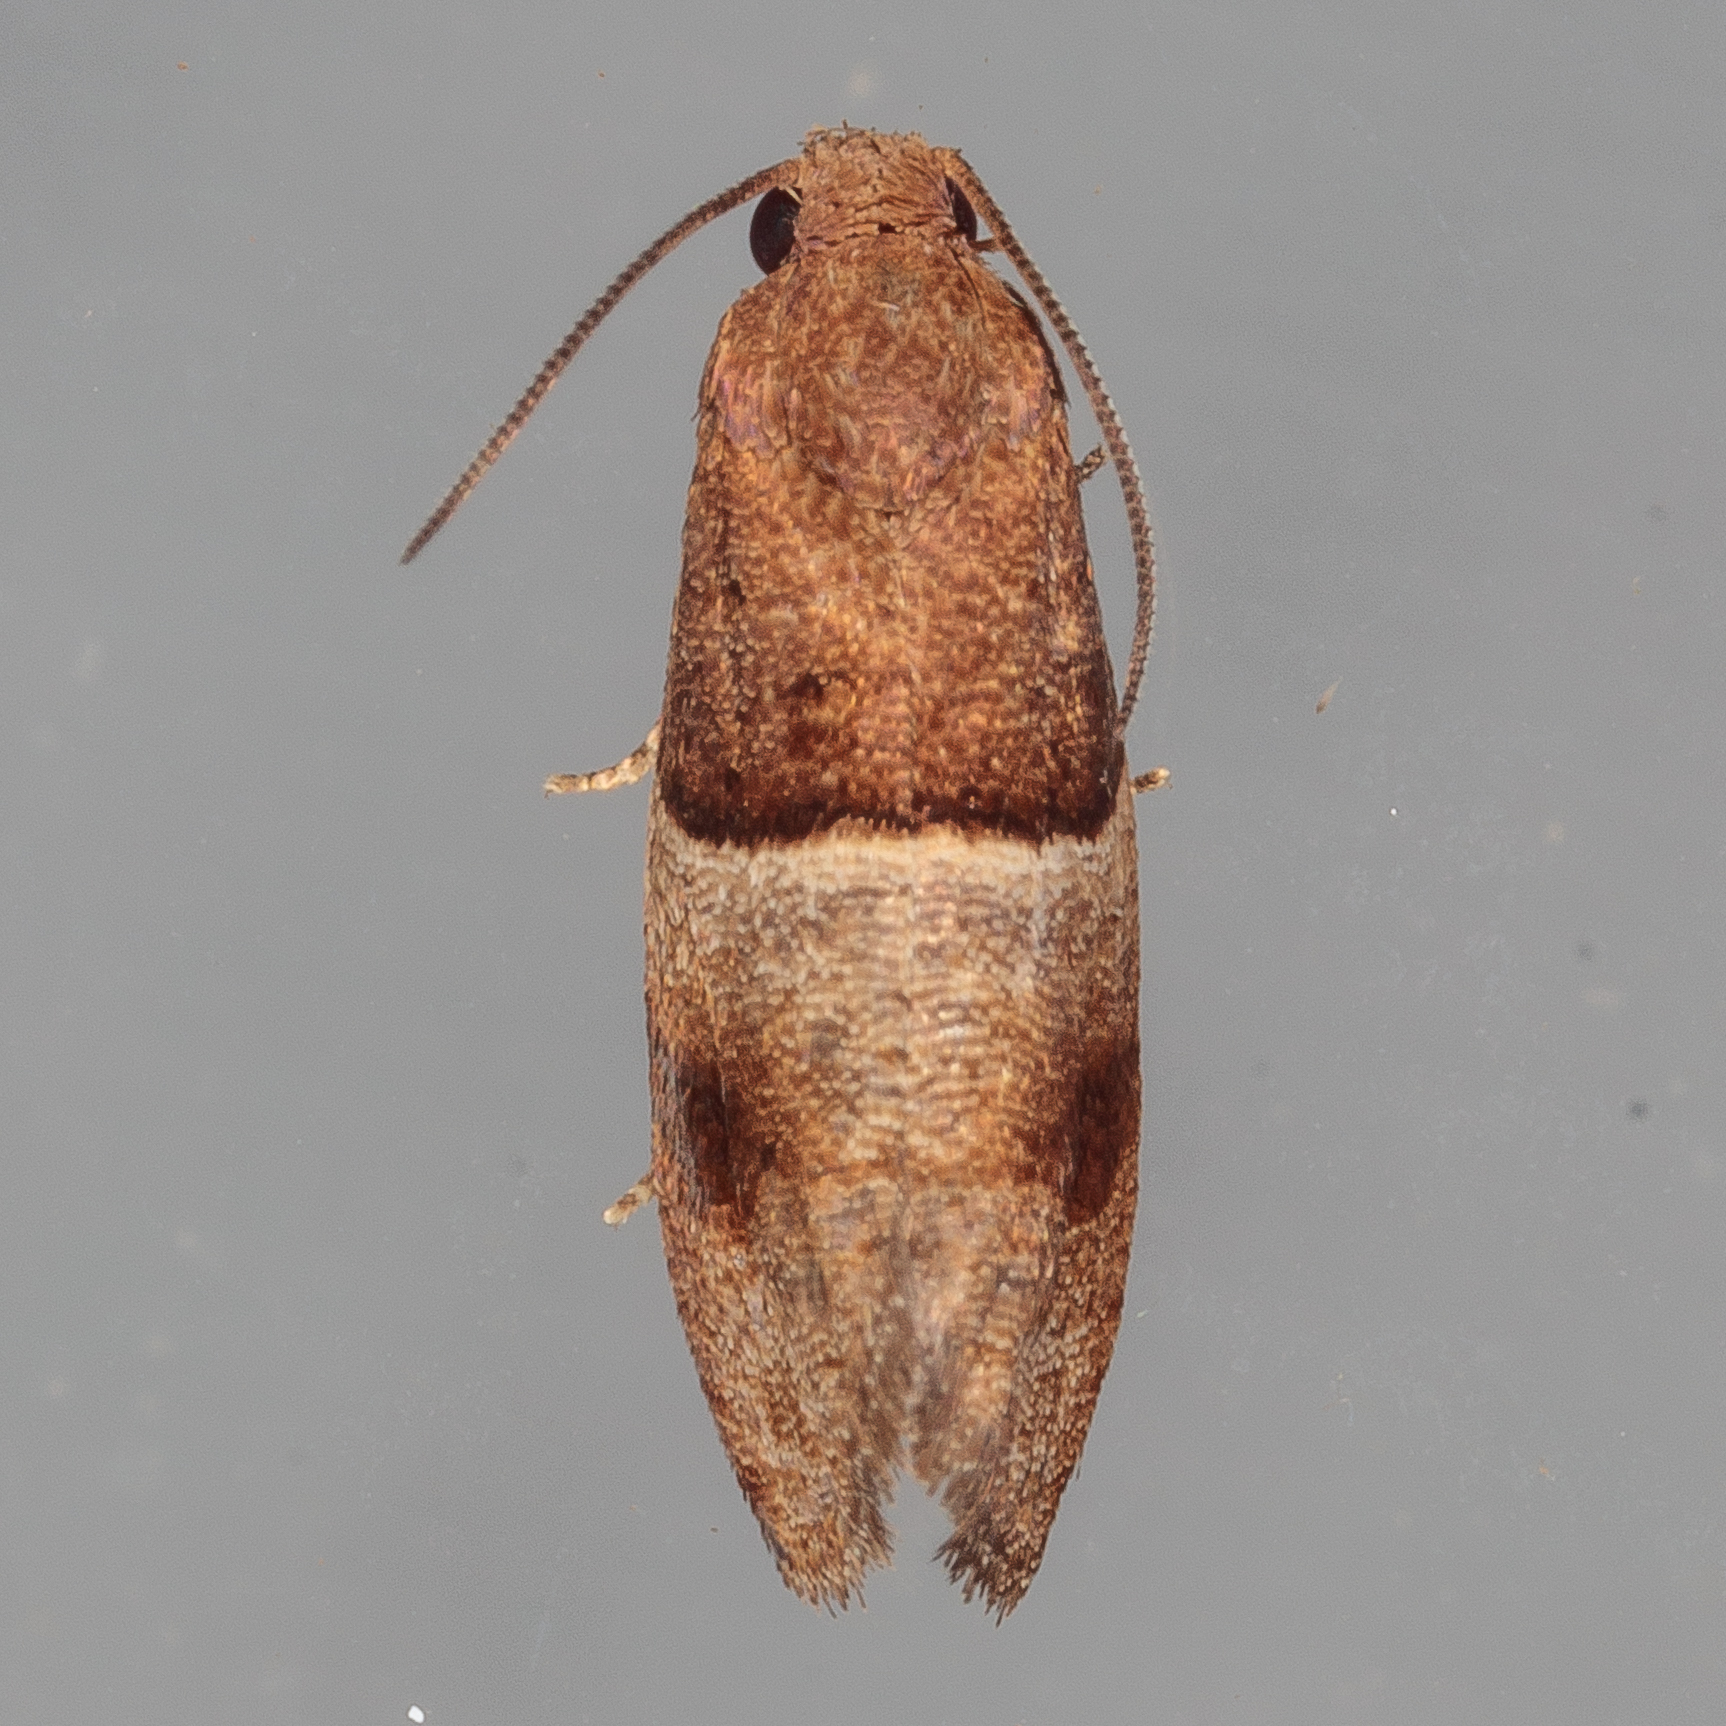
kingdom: Animalia
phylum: Arthropoda
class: Insecta
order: Lepidoptera
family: Tortricidae
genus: Larisa
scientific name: Larisa subsolana
